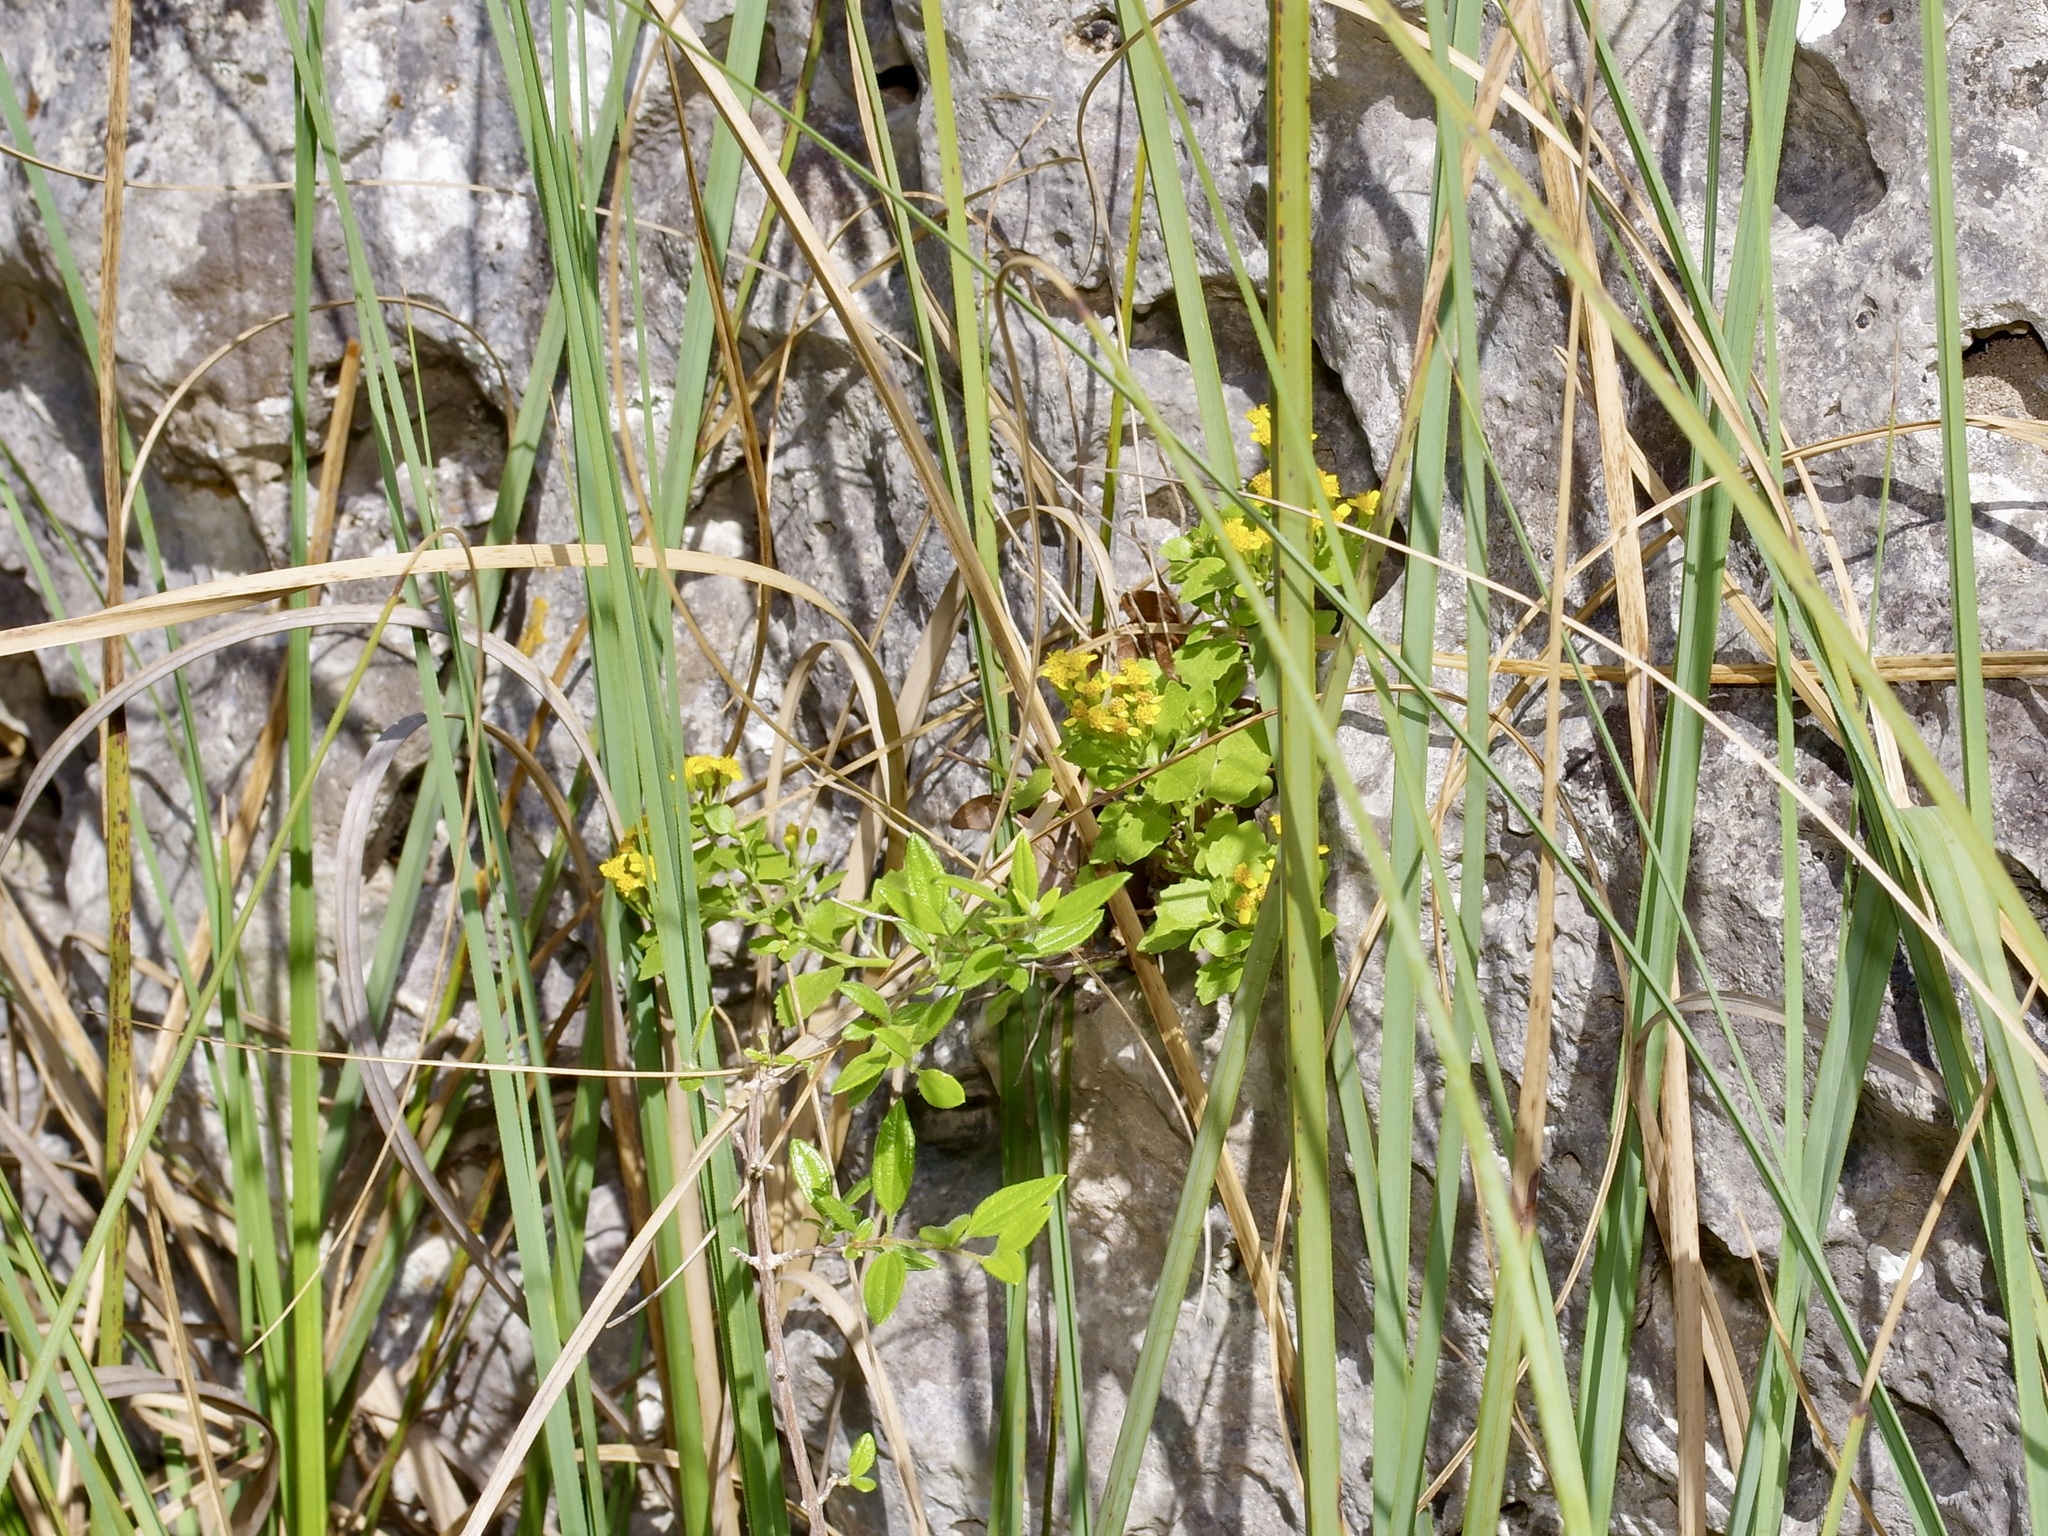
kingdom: Plantae
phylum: Tracheophyta
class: Magnoliopsida
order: Asterales
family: Asteraceae
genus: Laphamia
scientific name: Laphamia lindheimeri
